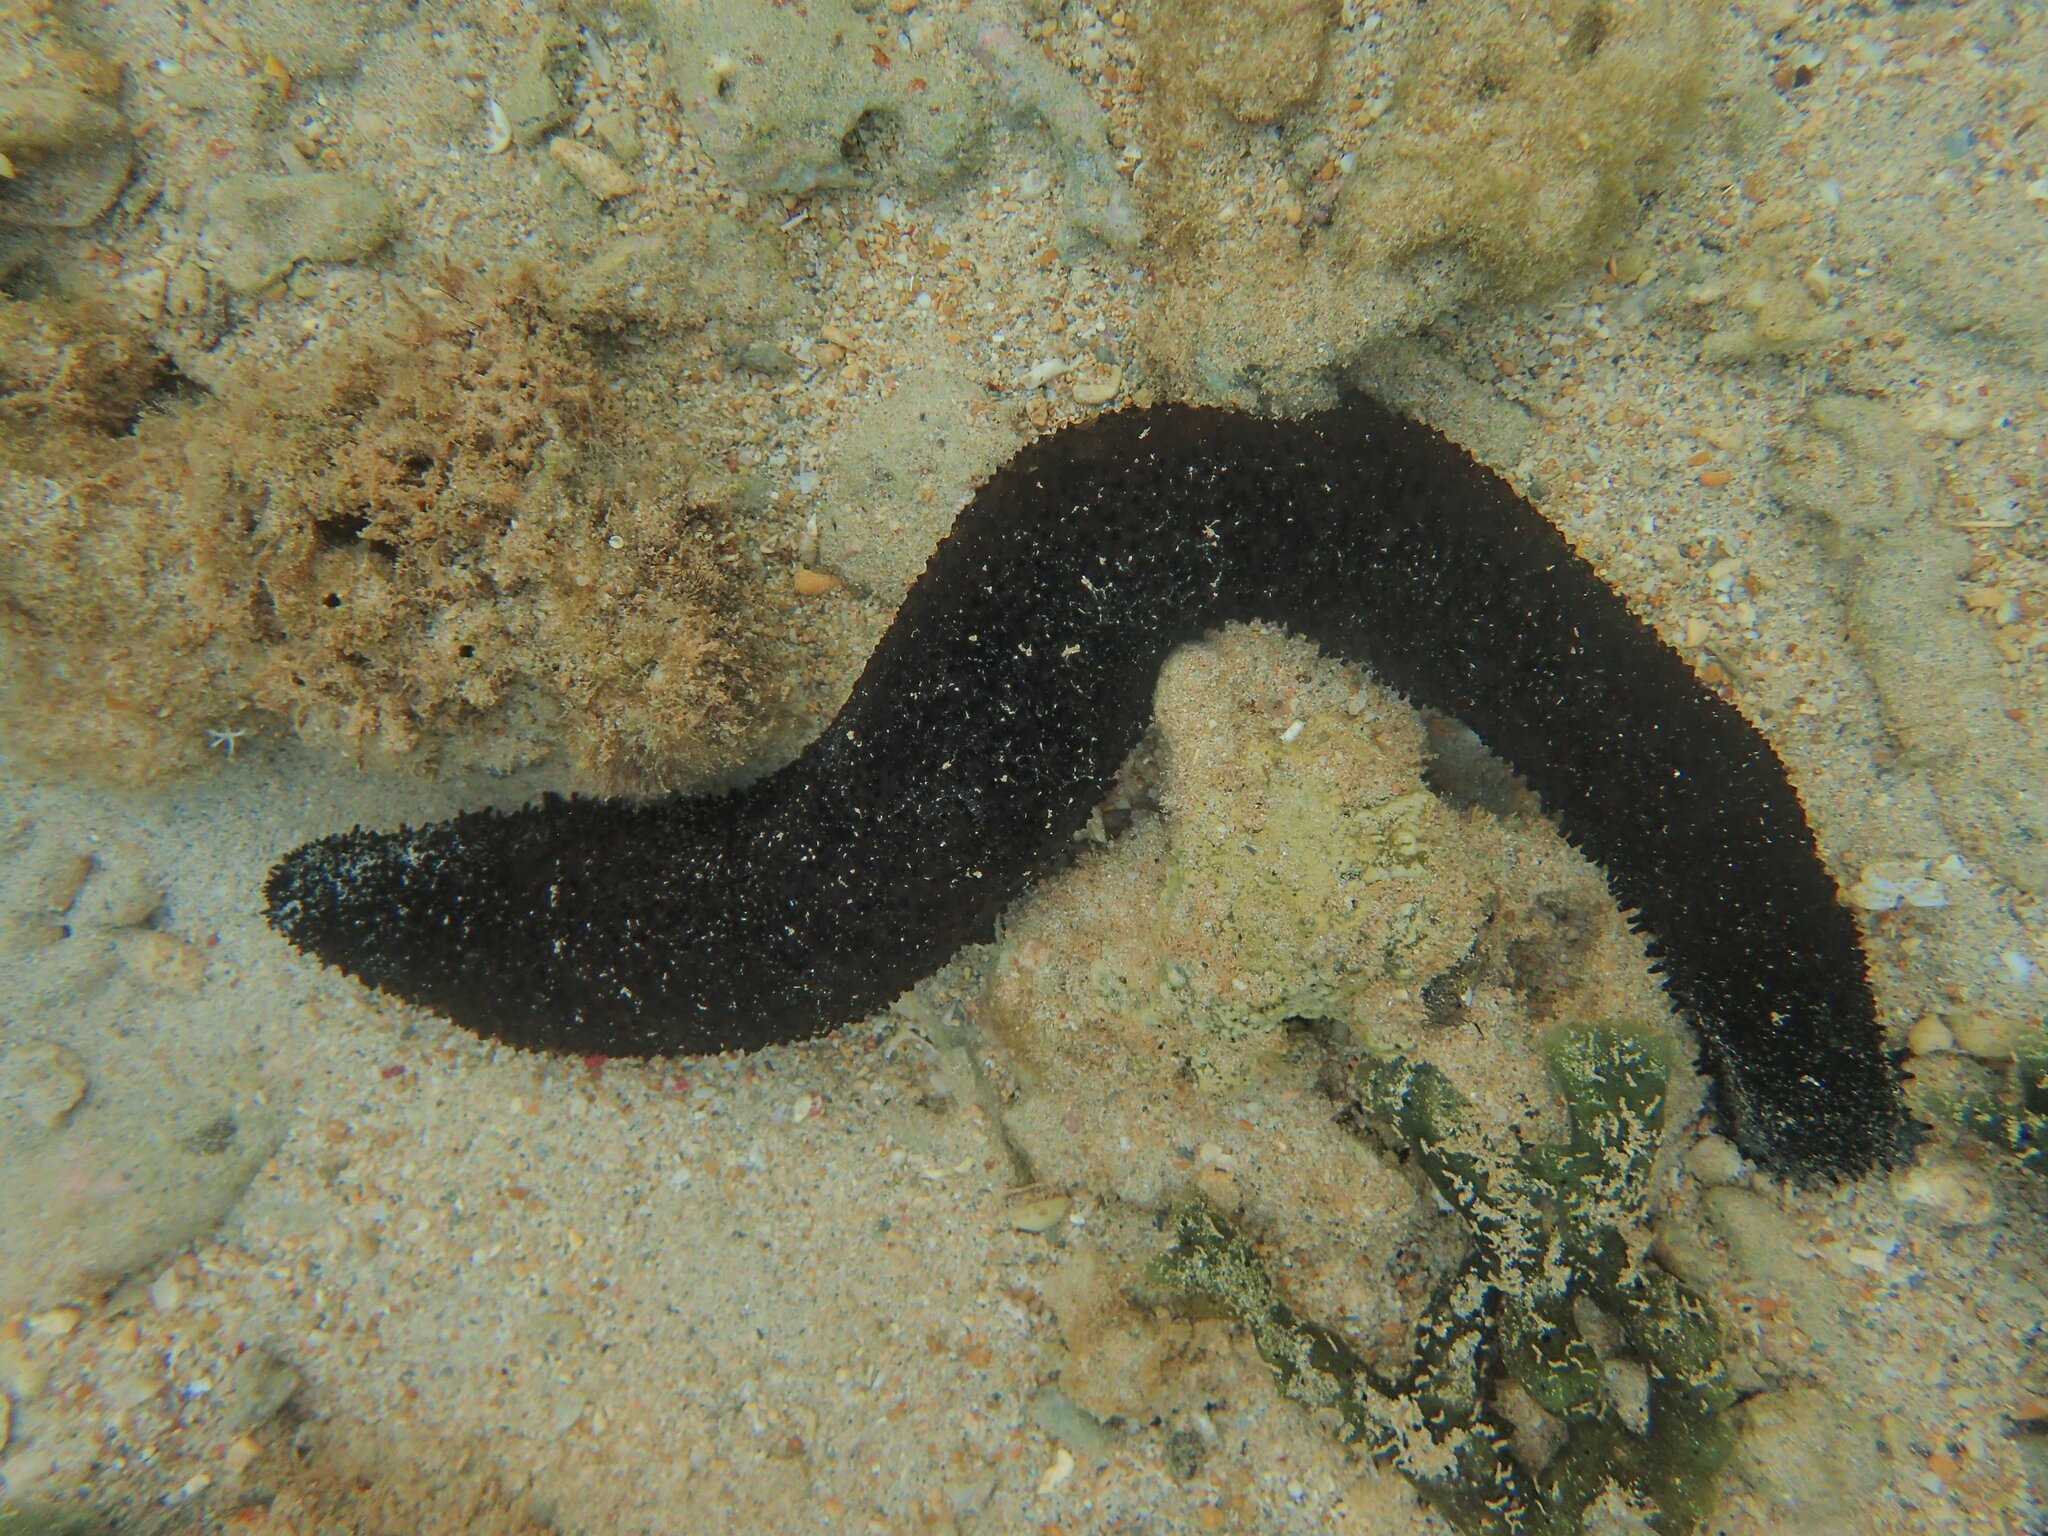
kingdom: Animalia
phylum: Echinodermata
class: Holothuroidea
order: Holothuriida
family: Holothuriidae
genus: Holothuria
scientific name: Holothuria leucospilota
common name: White thread fish
